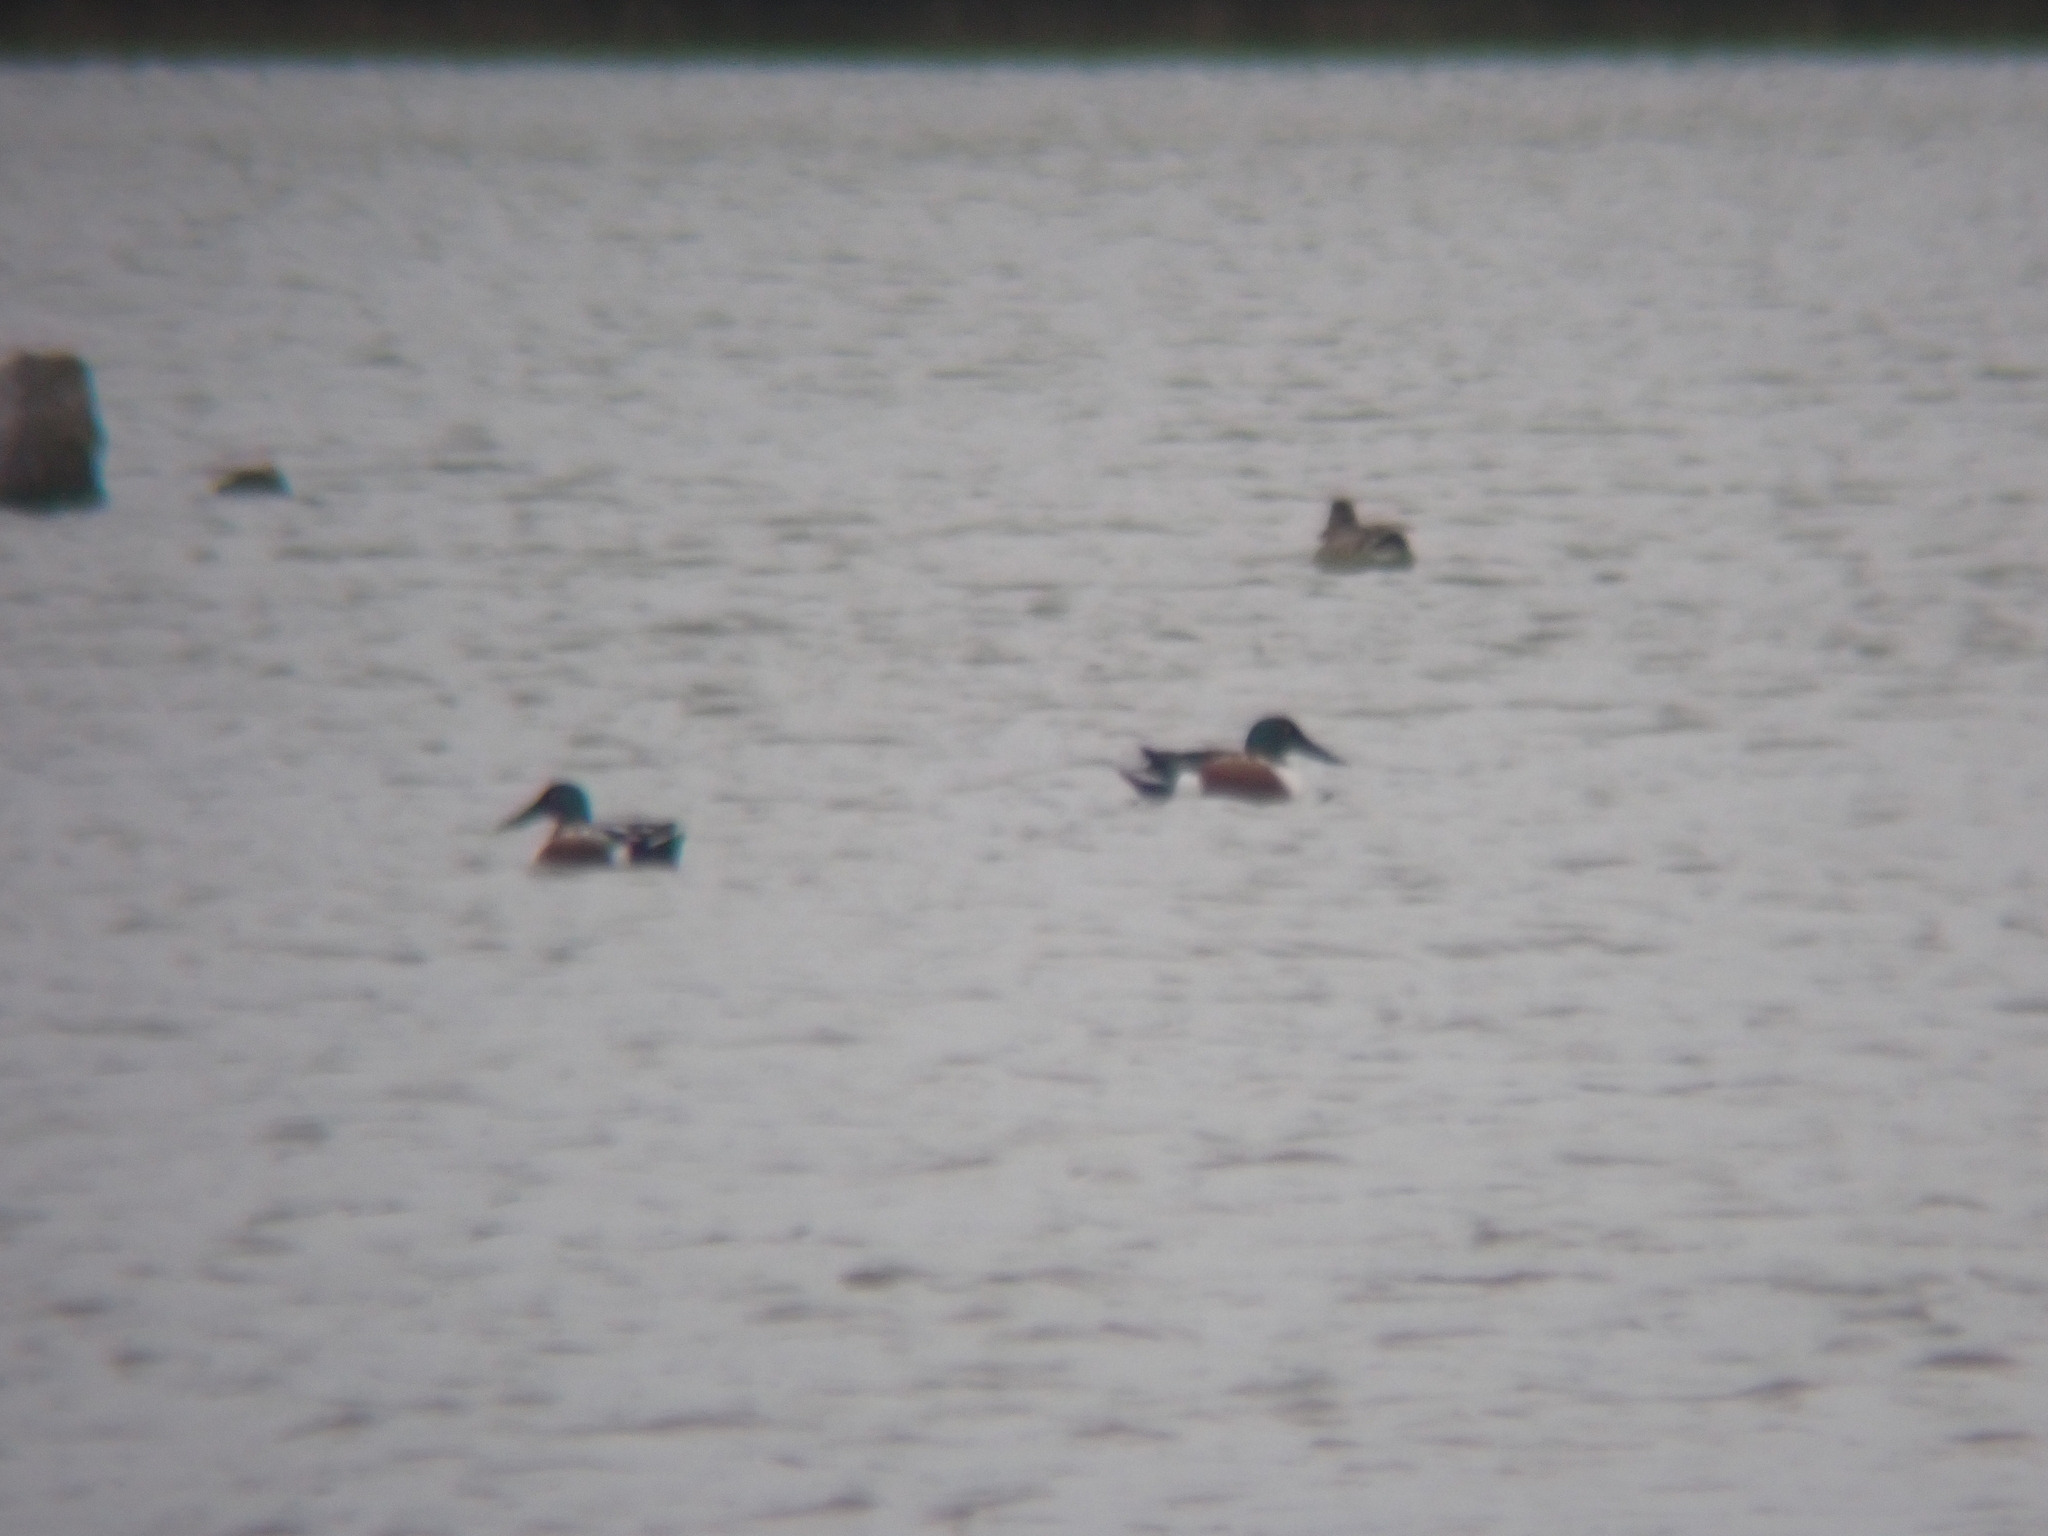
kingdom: Animalia
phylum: Chordata
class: Aves
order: Anseriformes
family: Anatidae
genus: Spatula
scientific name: Spatula clypeata
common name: Northern shoveler
